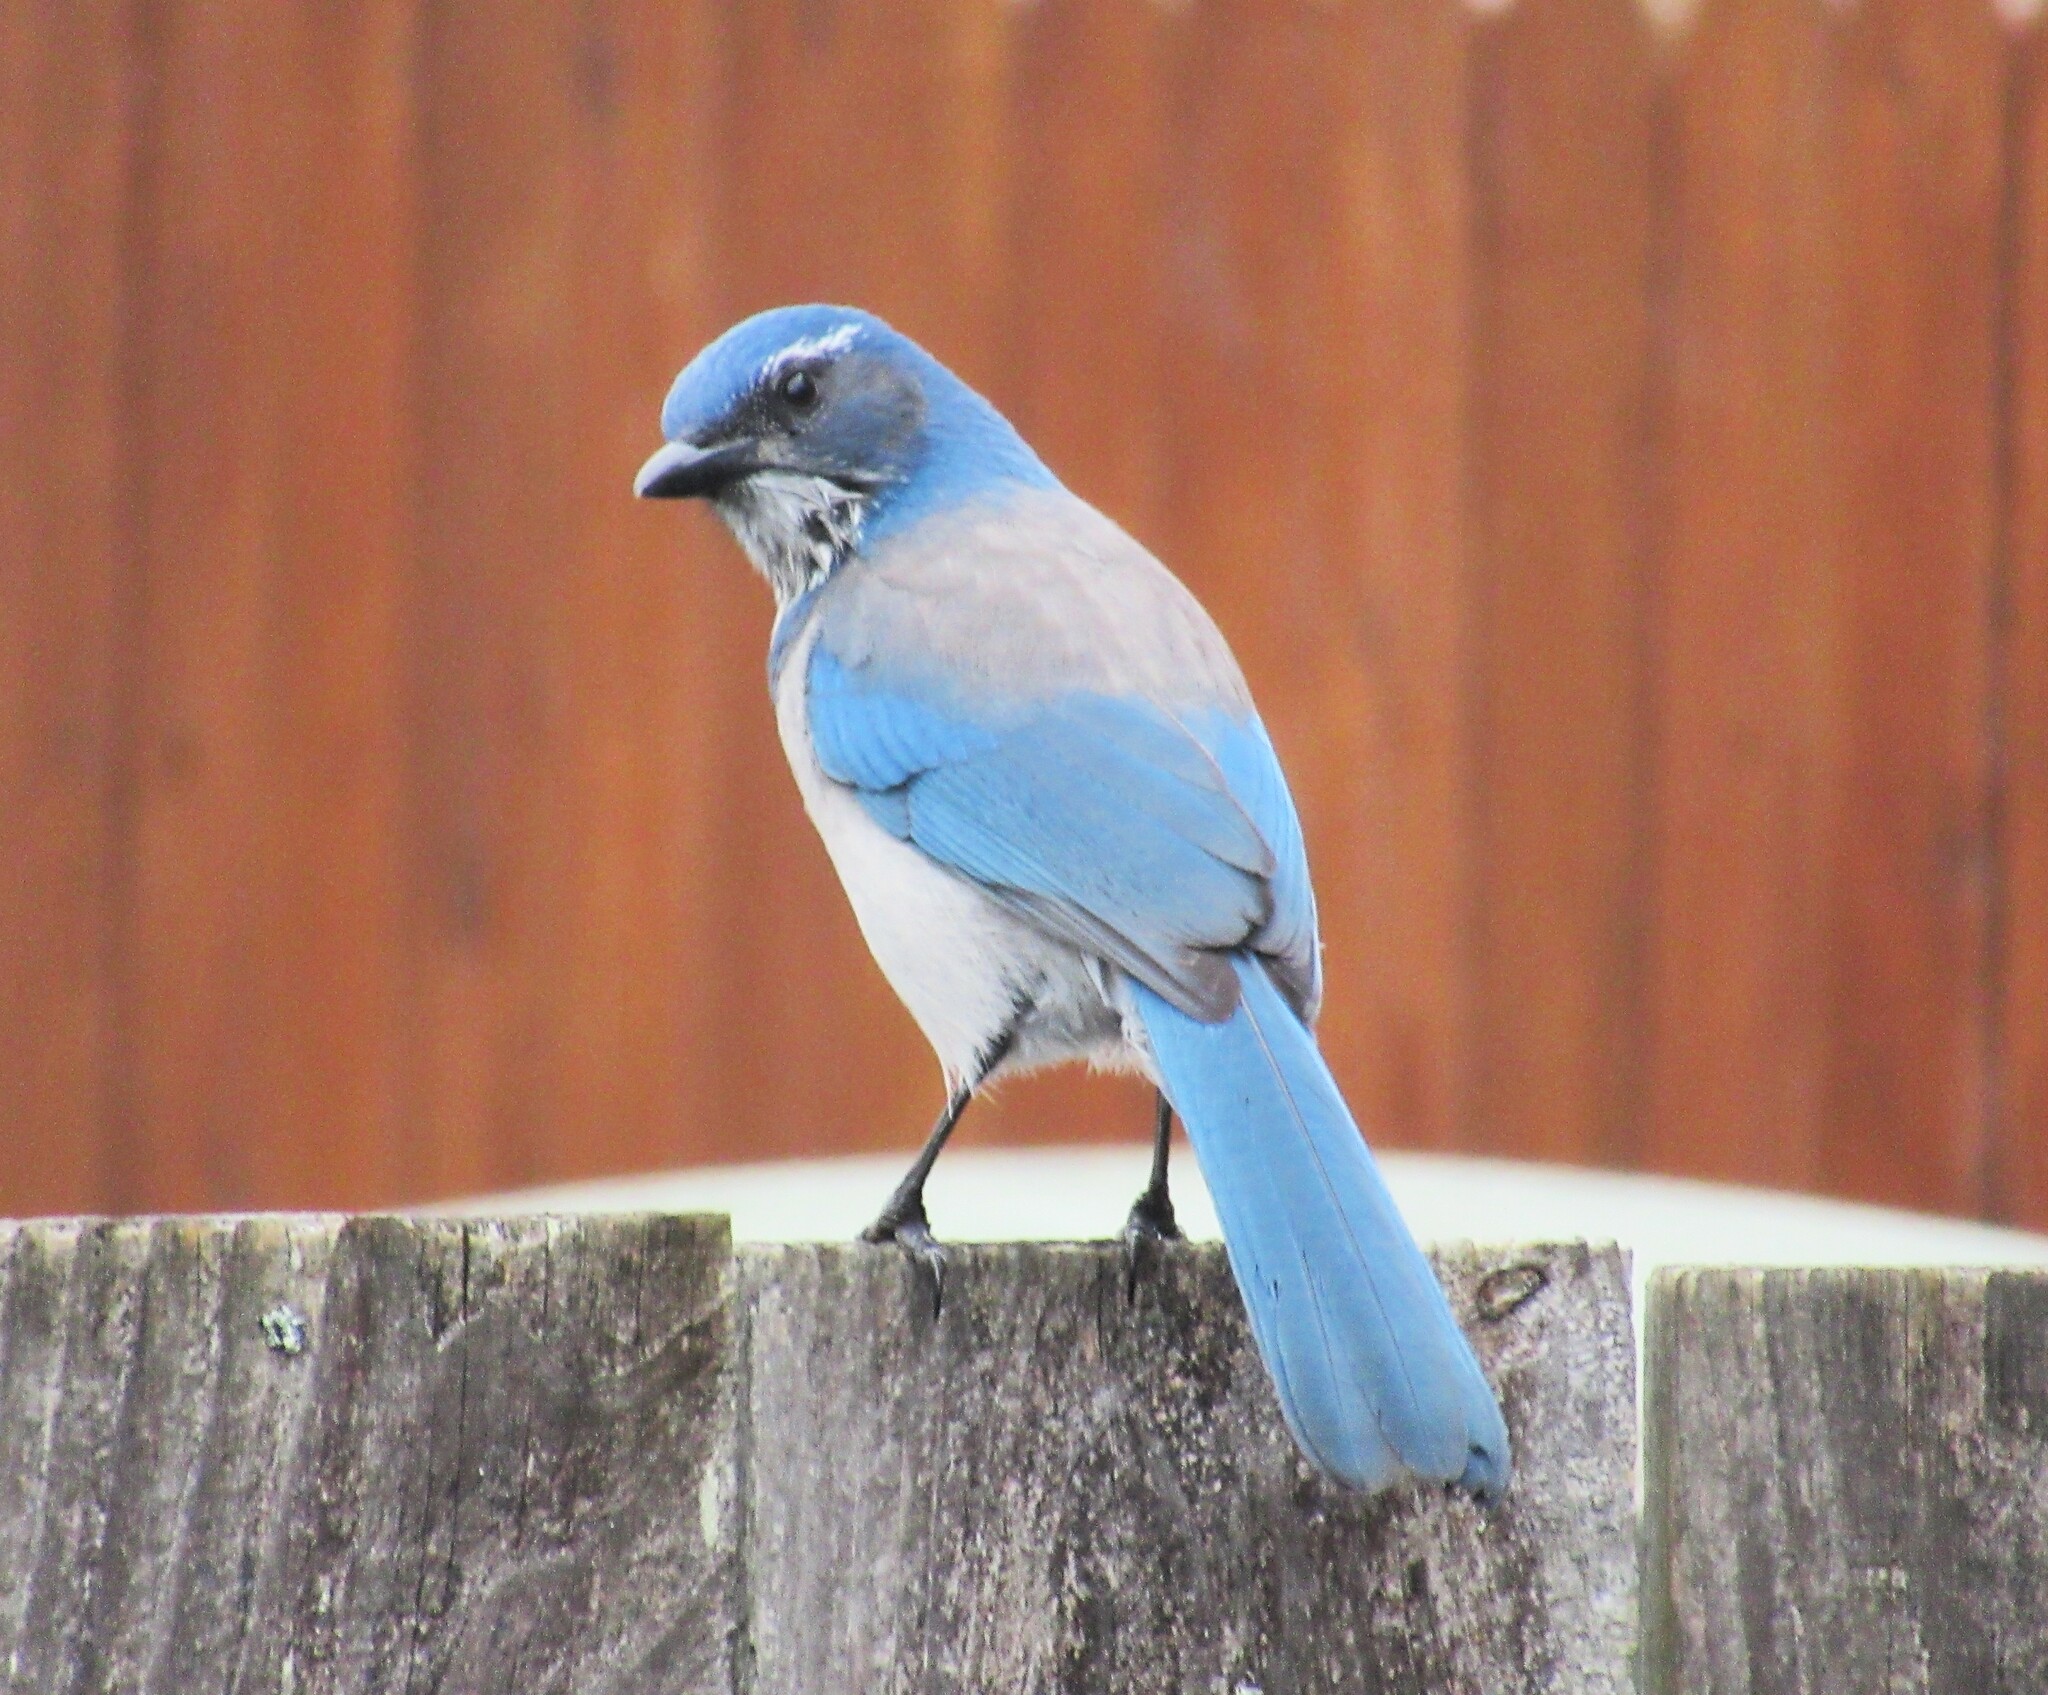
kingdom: Animalia
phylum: Chordata
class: Aves
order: Passeriformes
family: Corvidae
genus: Aphelocoma
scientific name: Aphelocoma californica
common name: California scrub-jay
